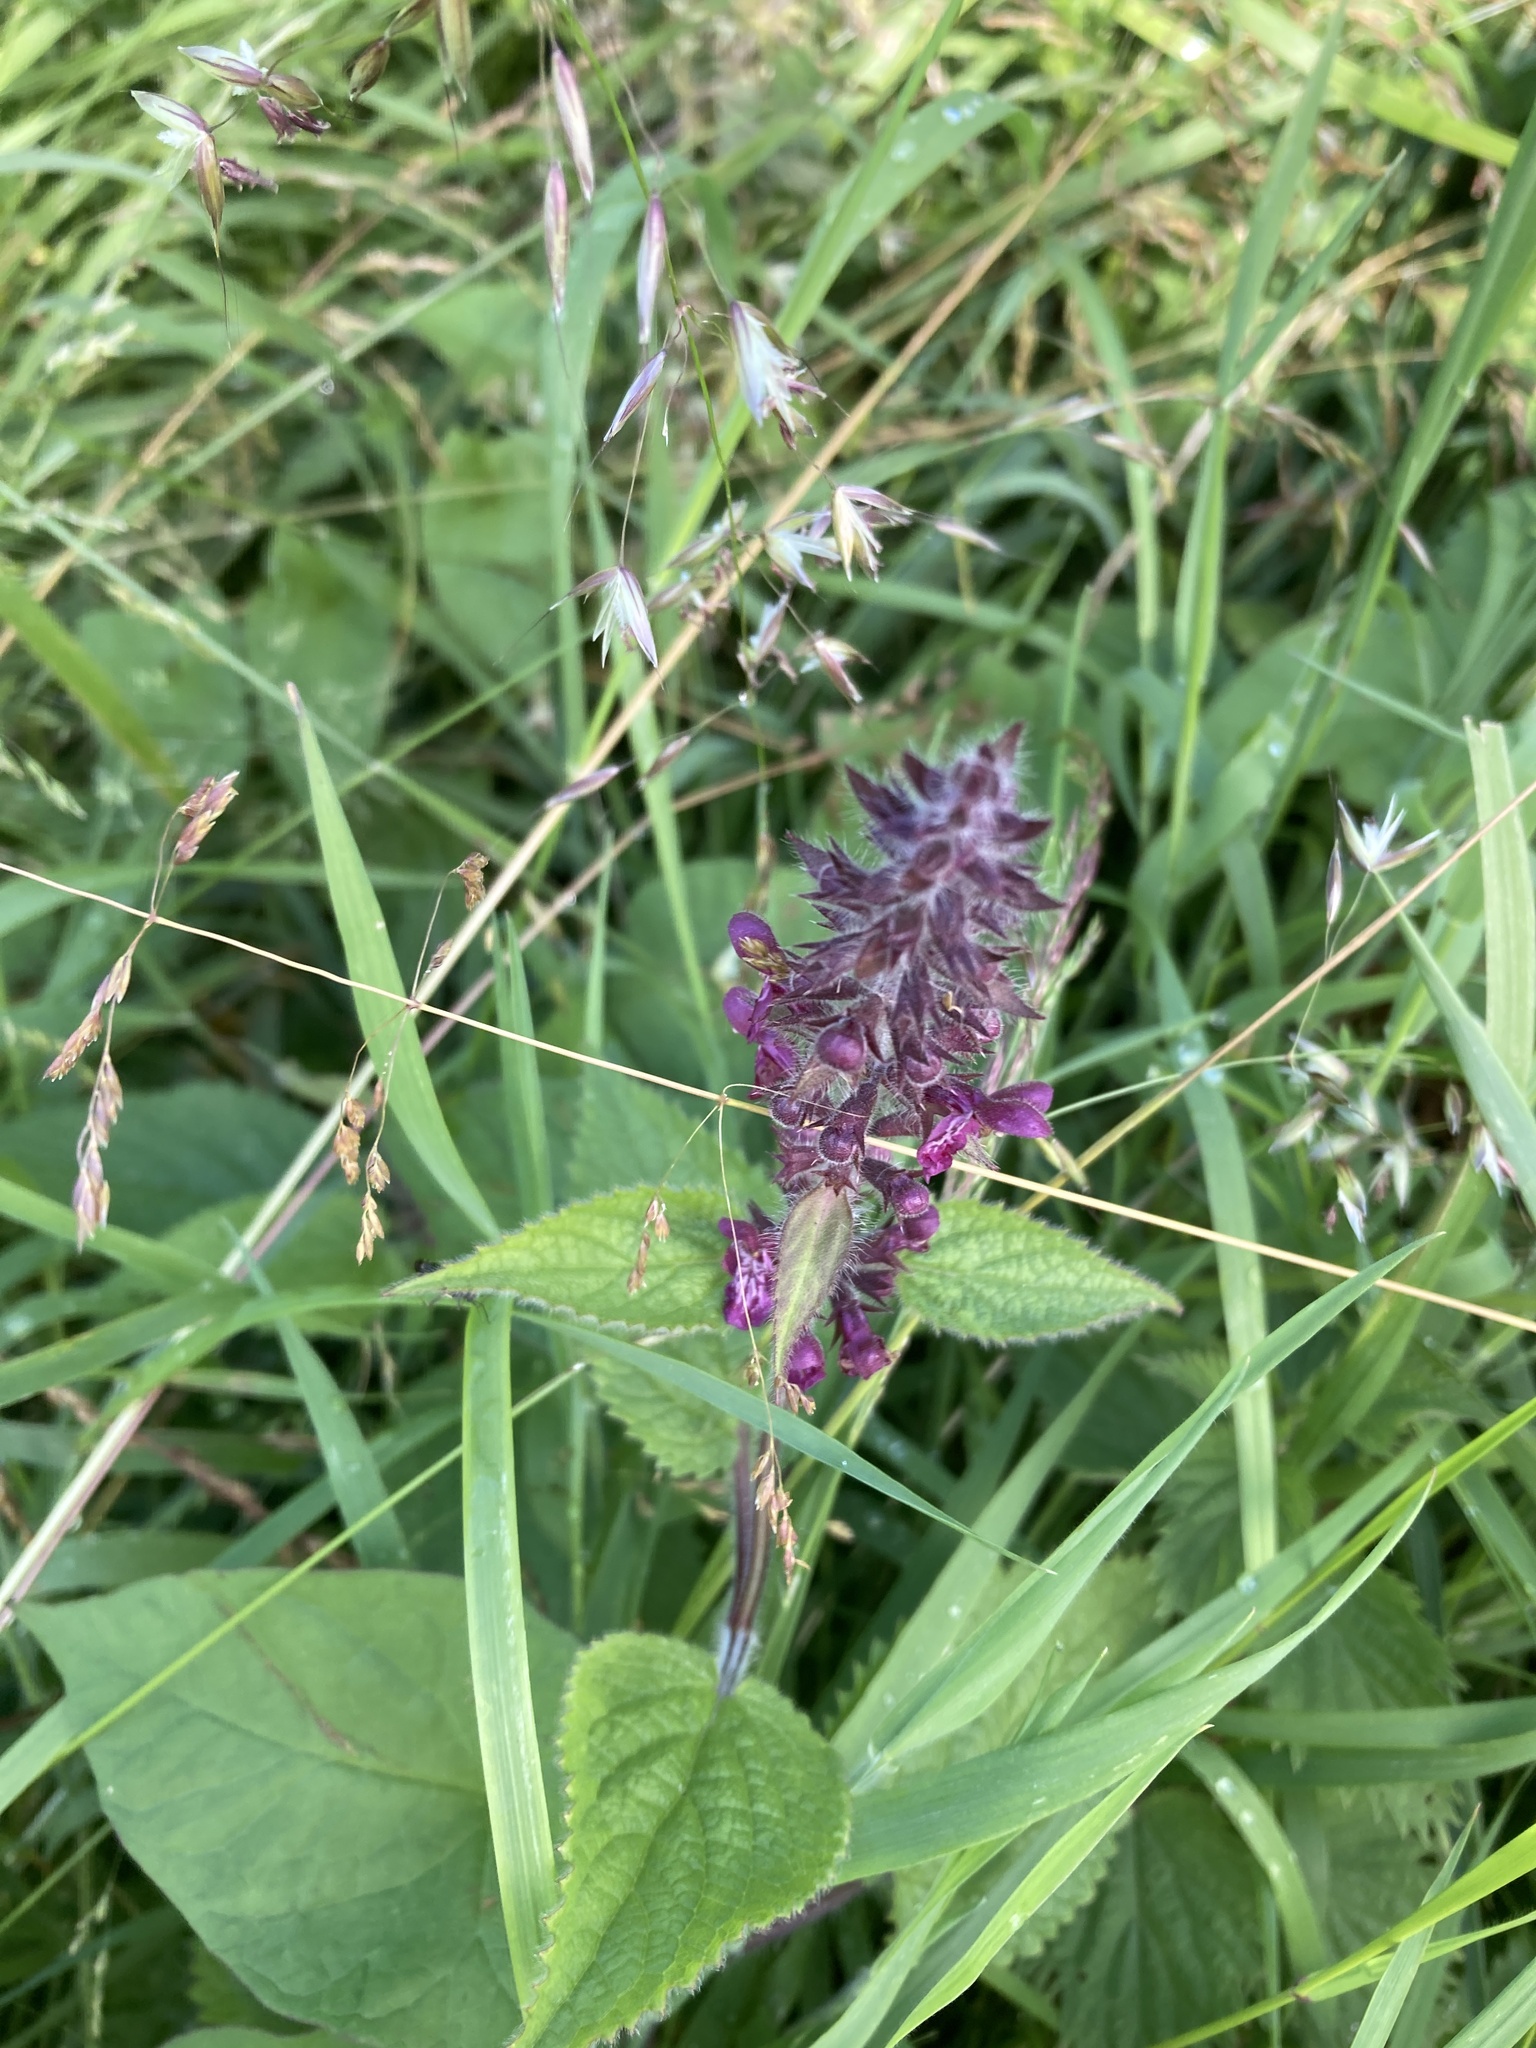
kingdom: Plantae
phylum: Tracheophyta
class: Magnoliopsida
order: Lamiales
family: Lamiaceae
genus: Stachys
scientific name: Stachys sylvatica
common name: Hedge woundwort
